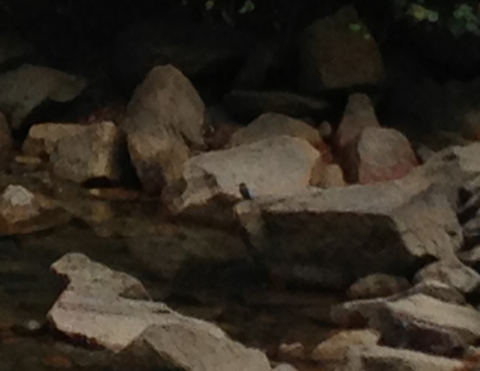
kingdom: Animalia
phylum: Chordata
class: Aves
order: Coraciiformes
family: Alcedinidae
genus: Alcedo
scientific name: Alcedo atthis
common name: Common kingfisher
